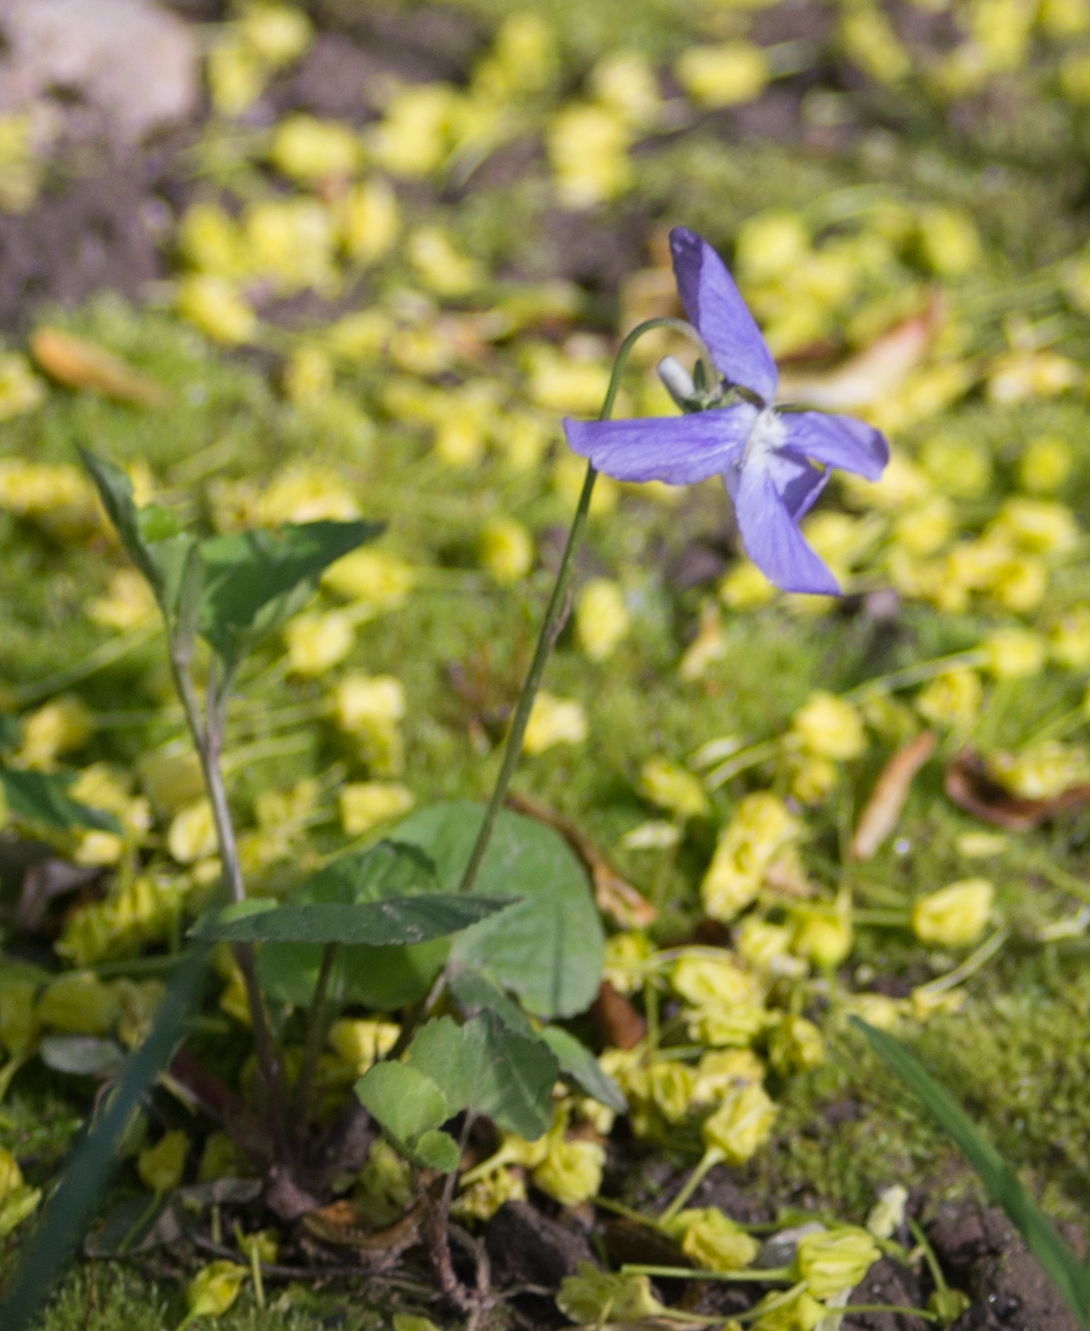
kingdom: Plantae
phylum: Tracheophyta
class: Magnoliopsida
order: Malpighiales
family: Violaceae
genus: Viola
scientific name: Viola riviniana
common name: Common dog-violet
